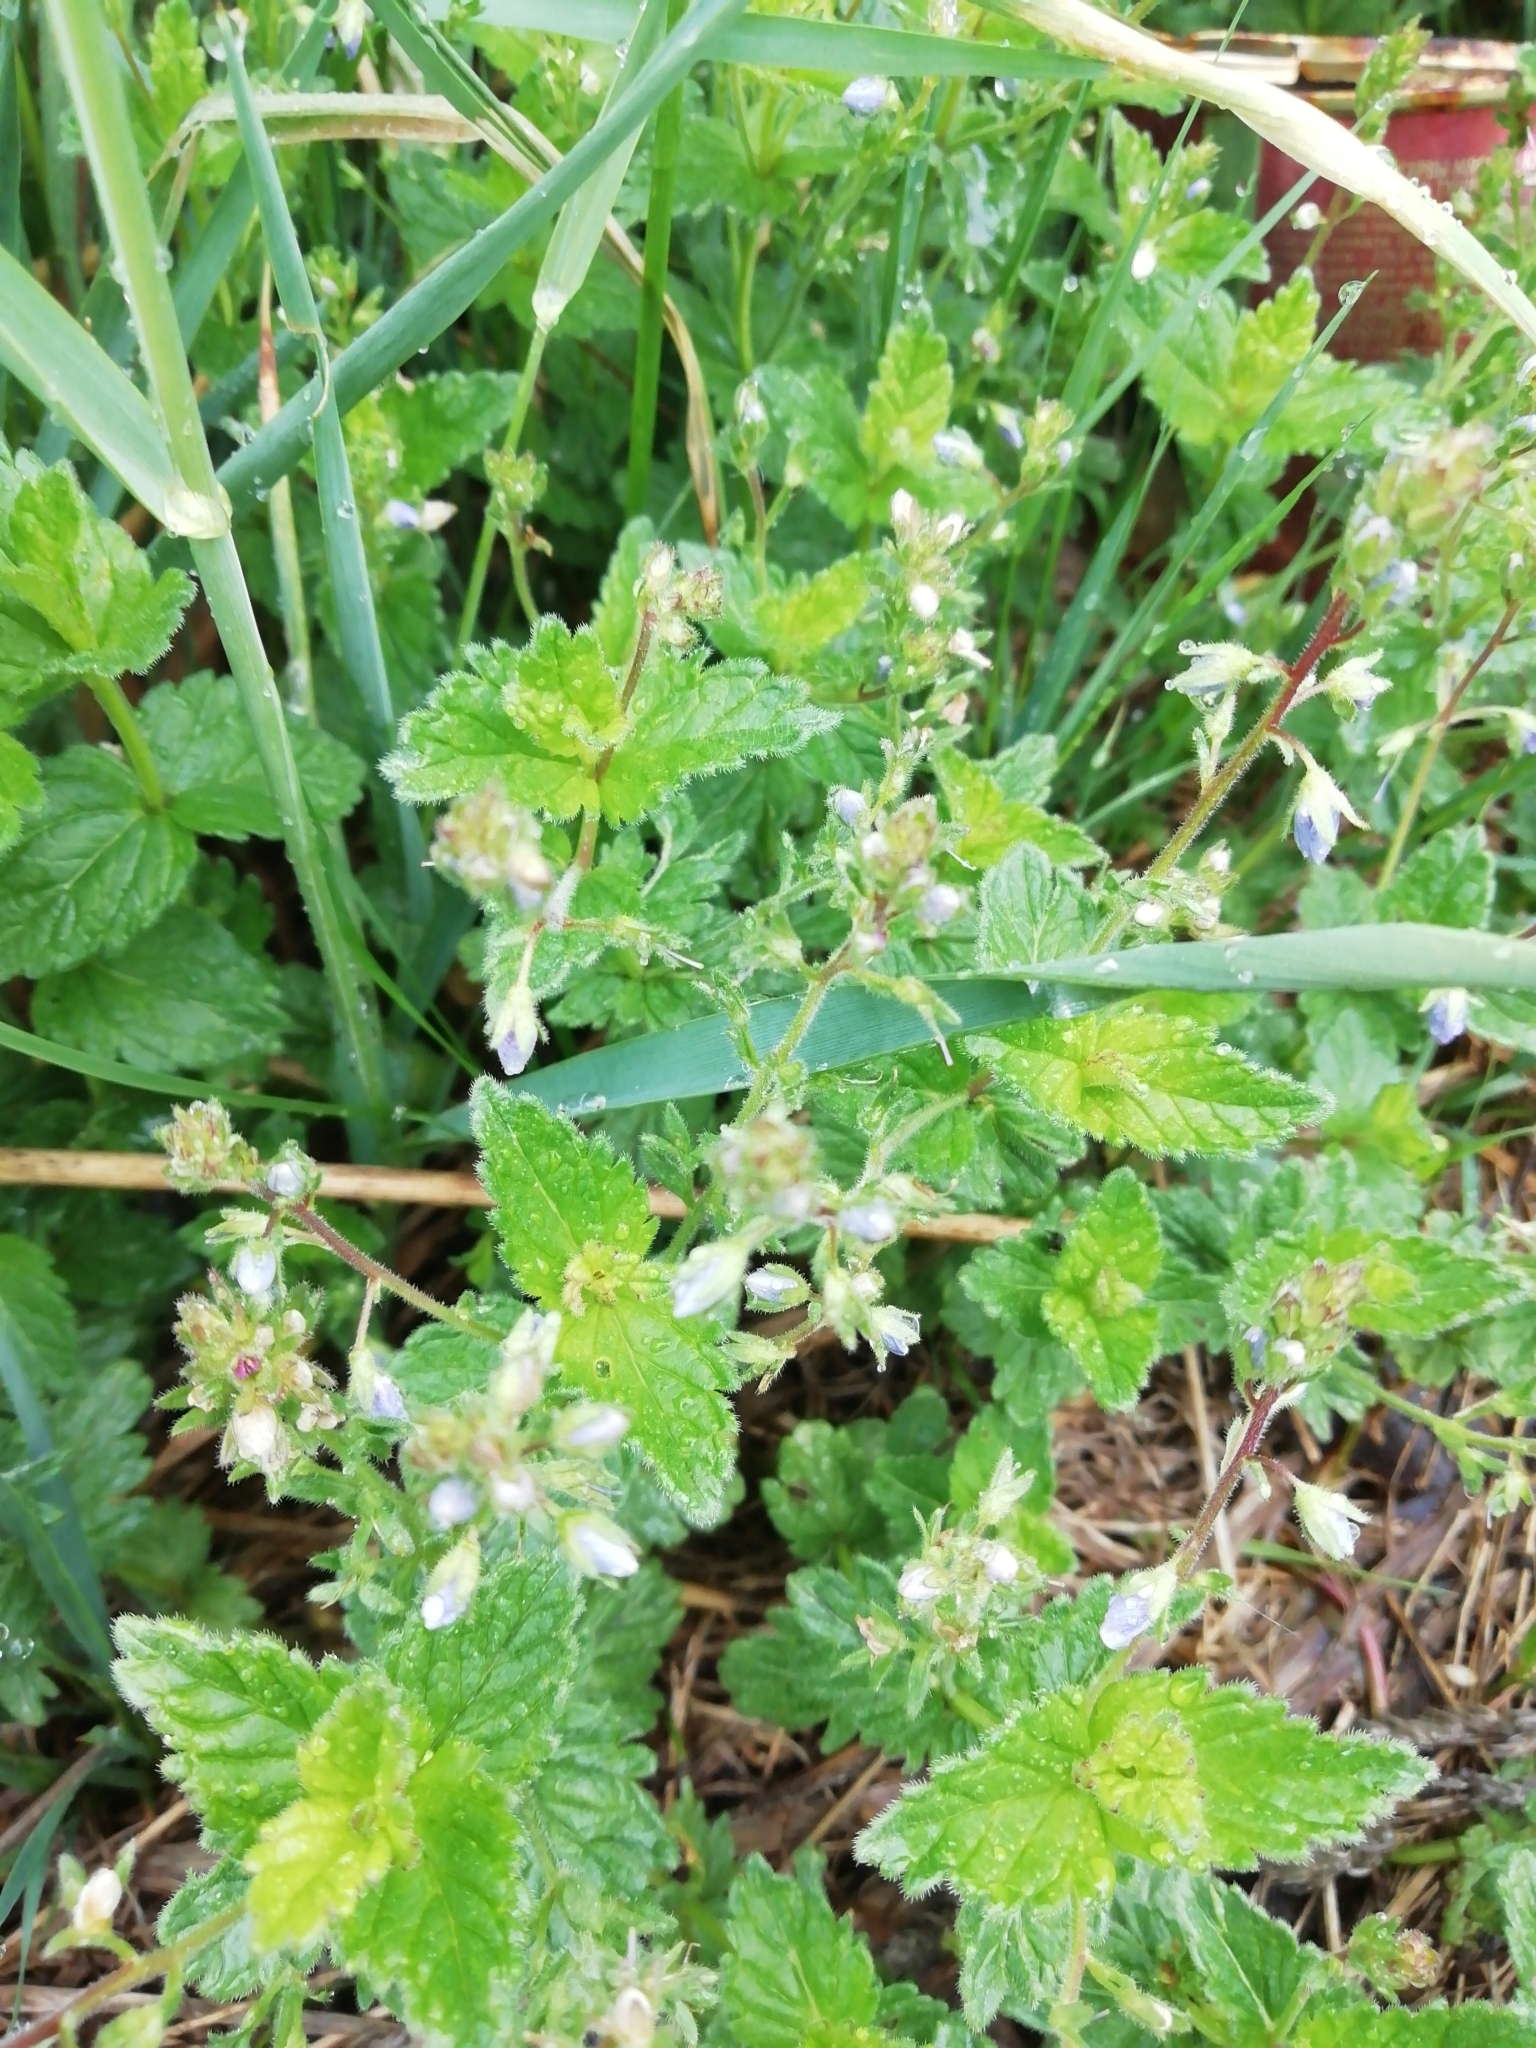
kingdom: Plantae
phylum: Tracheophyta
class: Magnoliopsida
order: Lamiales
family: Plantaginaceae
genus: Veronica
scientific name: Veronica chamaedrys
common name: Germander speedwell
